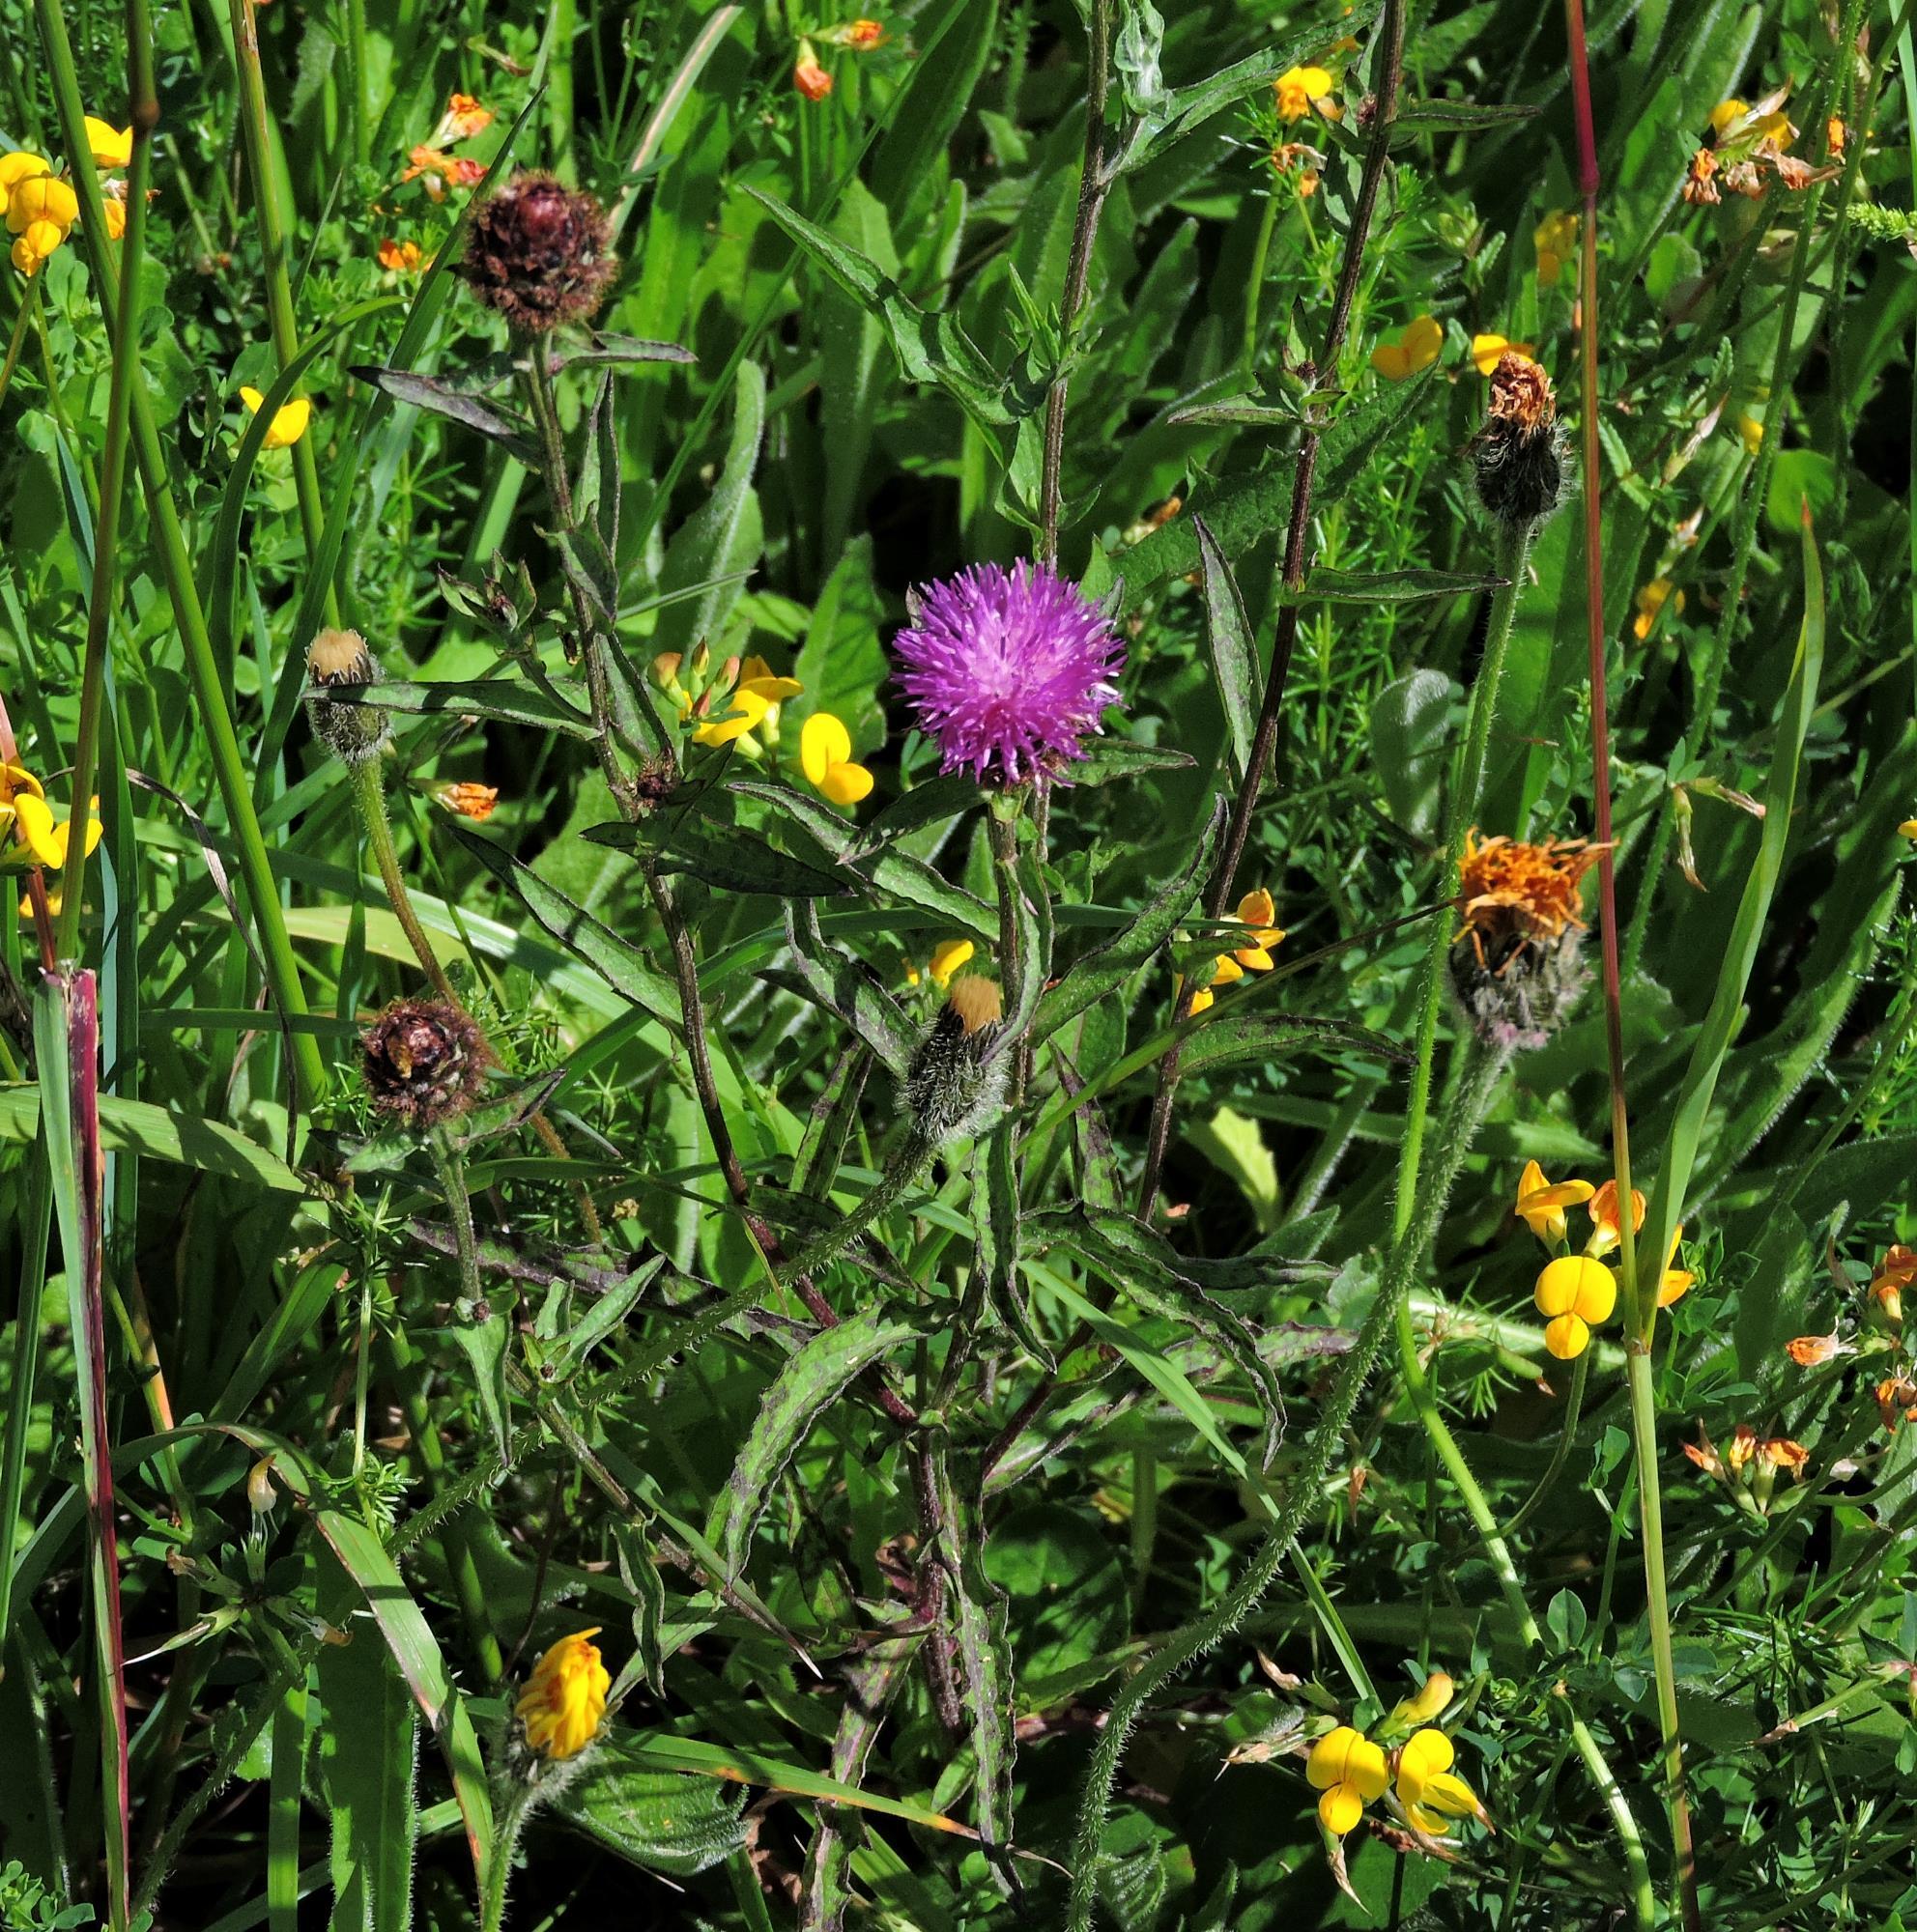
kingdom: Plantae
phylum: Tracheophyta
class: Magnoliopsida
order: Asterales
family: Asteraceae
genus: Centaurea
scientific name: Centaurea nigra
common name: Lesser knapweed
